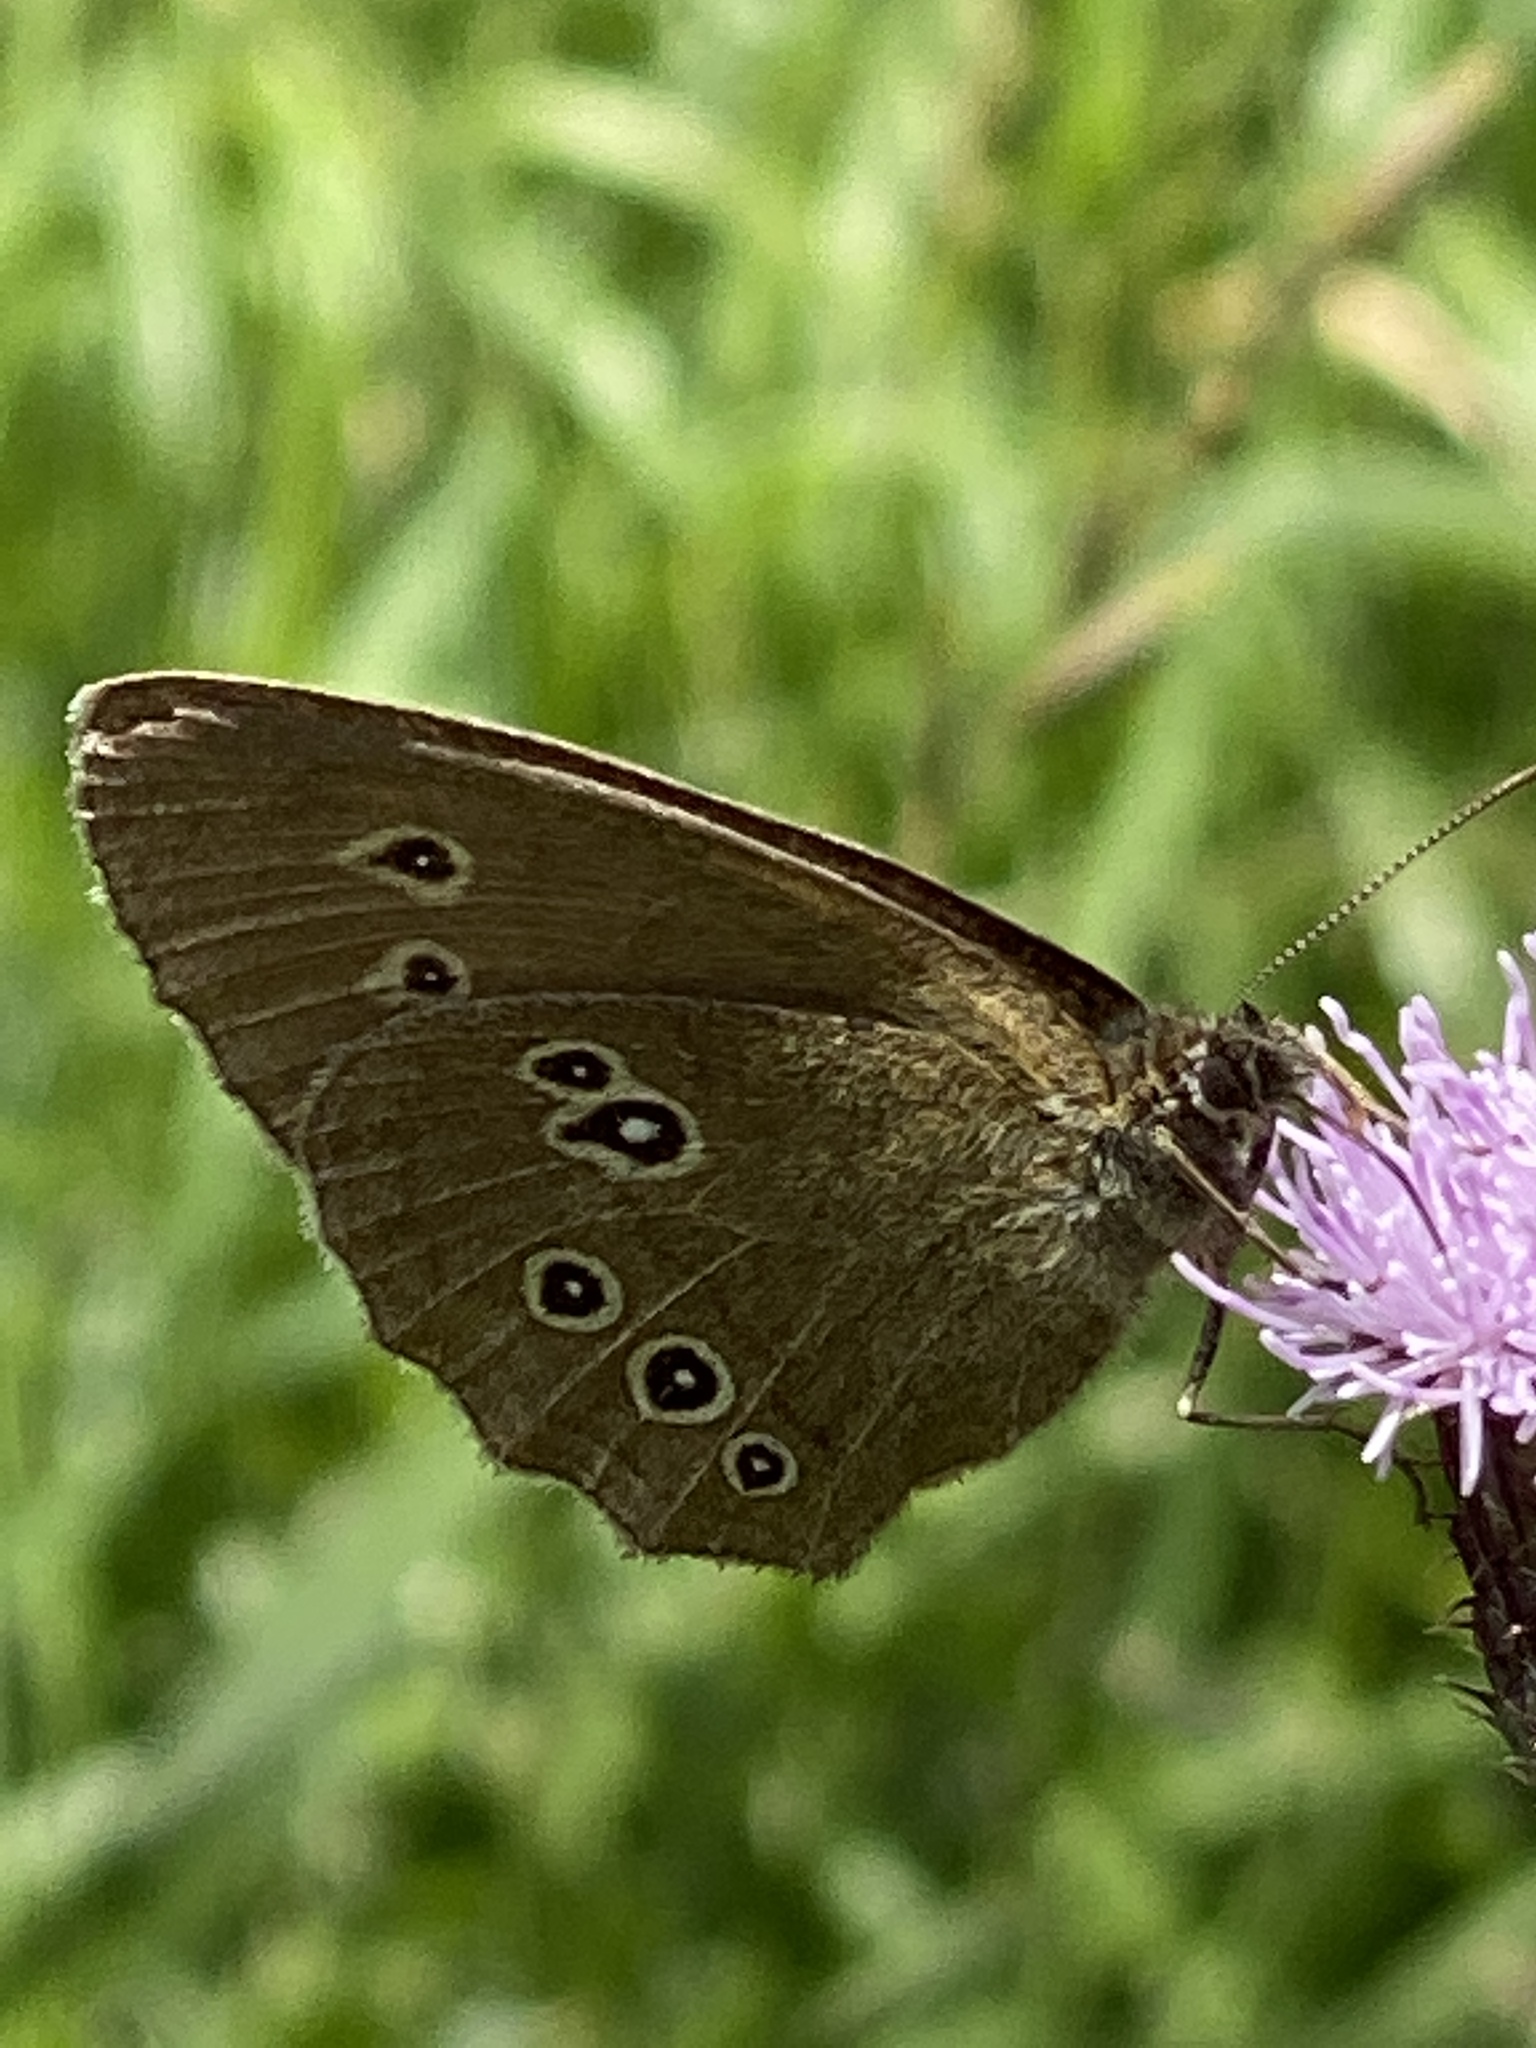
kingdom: Animalia
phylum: Arthropoda
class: Insecta
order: Lepidoptera
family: Nymphalidae
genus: Aphantopus
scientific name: Aphantopus hyperantus
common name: Ringlet
